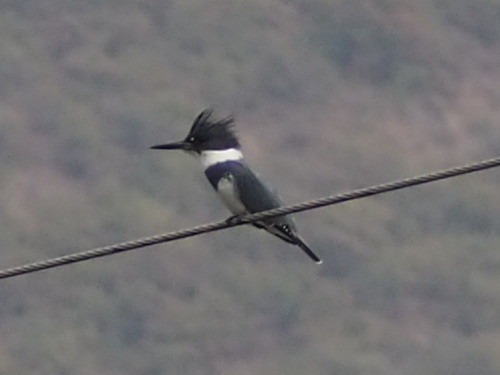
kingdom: Animalia
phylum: Chordata
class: Aves
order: Coraciiformes
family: Alcedinidae
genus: Megaceryle
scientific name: Megaceryle alcyon
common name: Belted kingfisher
